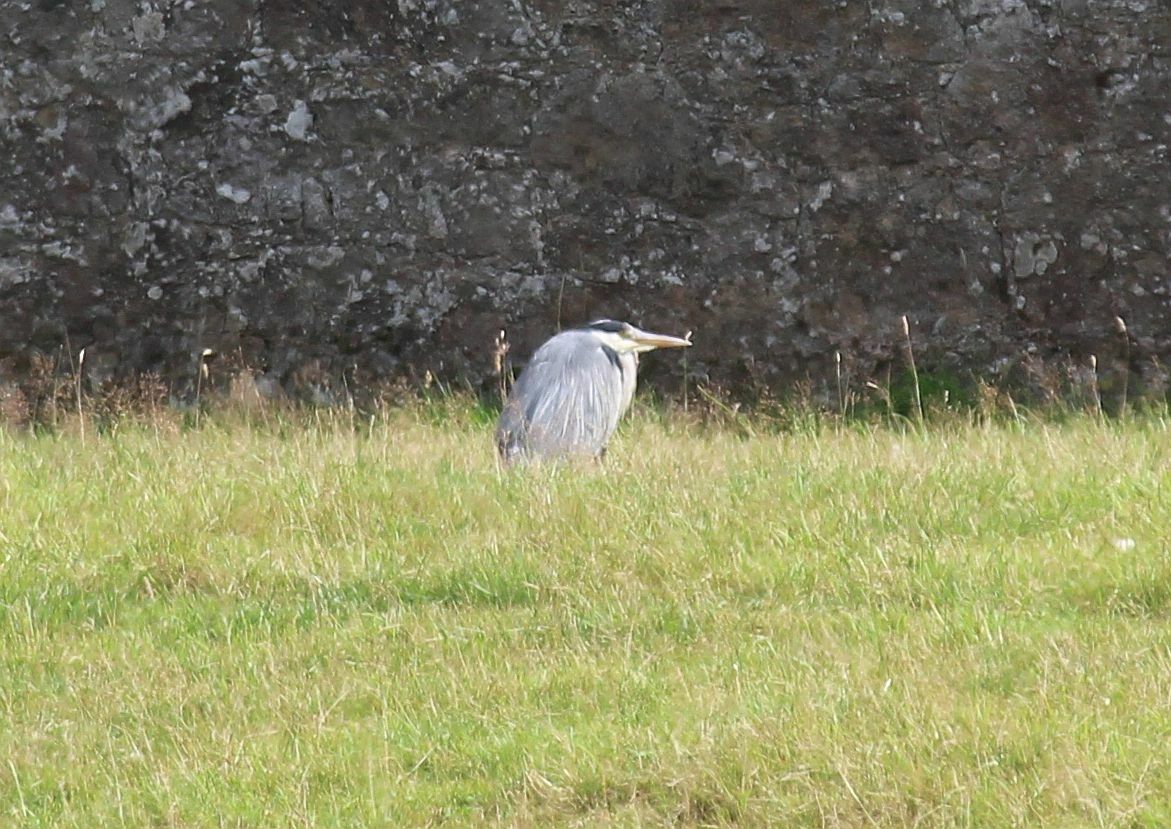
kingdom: Animalia
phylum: Chordata
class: Aves
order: Pelecaniformes
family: Ardeidae
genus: Ardea
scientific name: Ardea cinerea
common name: Grey heron
